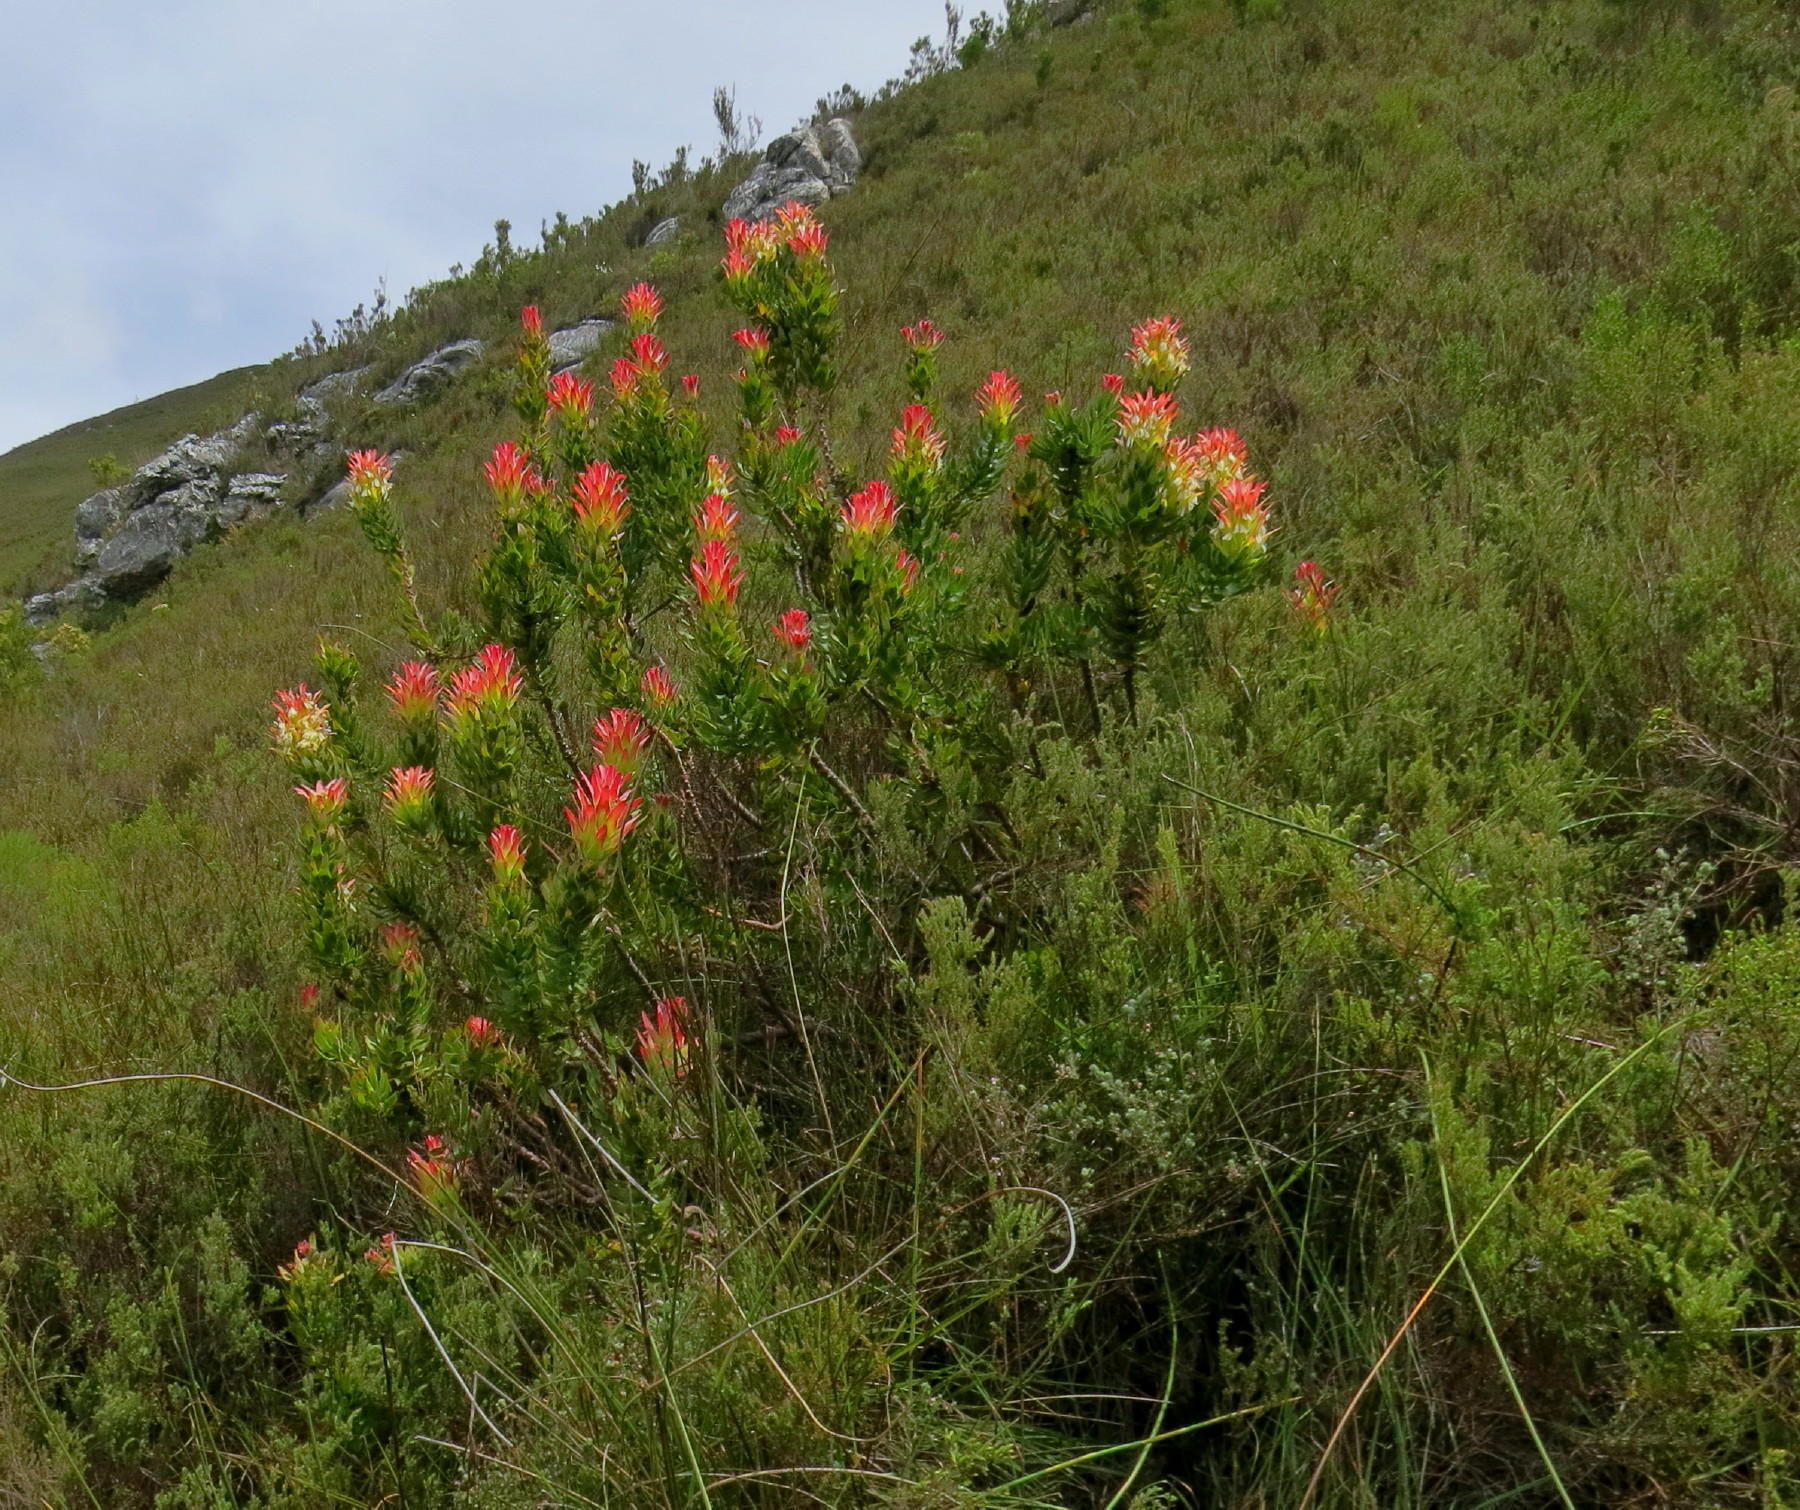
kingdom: Plantae
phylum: Tracheophyta
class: Magnoliopsida
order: Proteales
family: Proteaceae
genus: Mimetes
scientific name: Mimetes cucullatus
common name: Common pagoda
